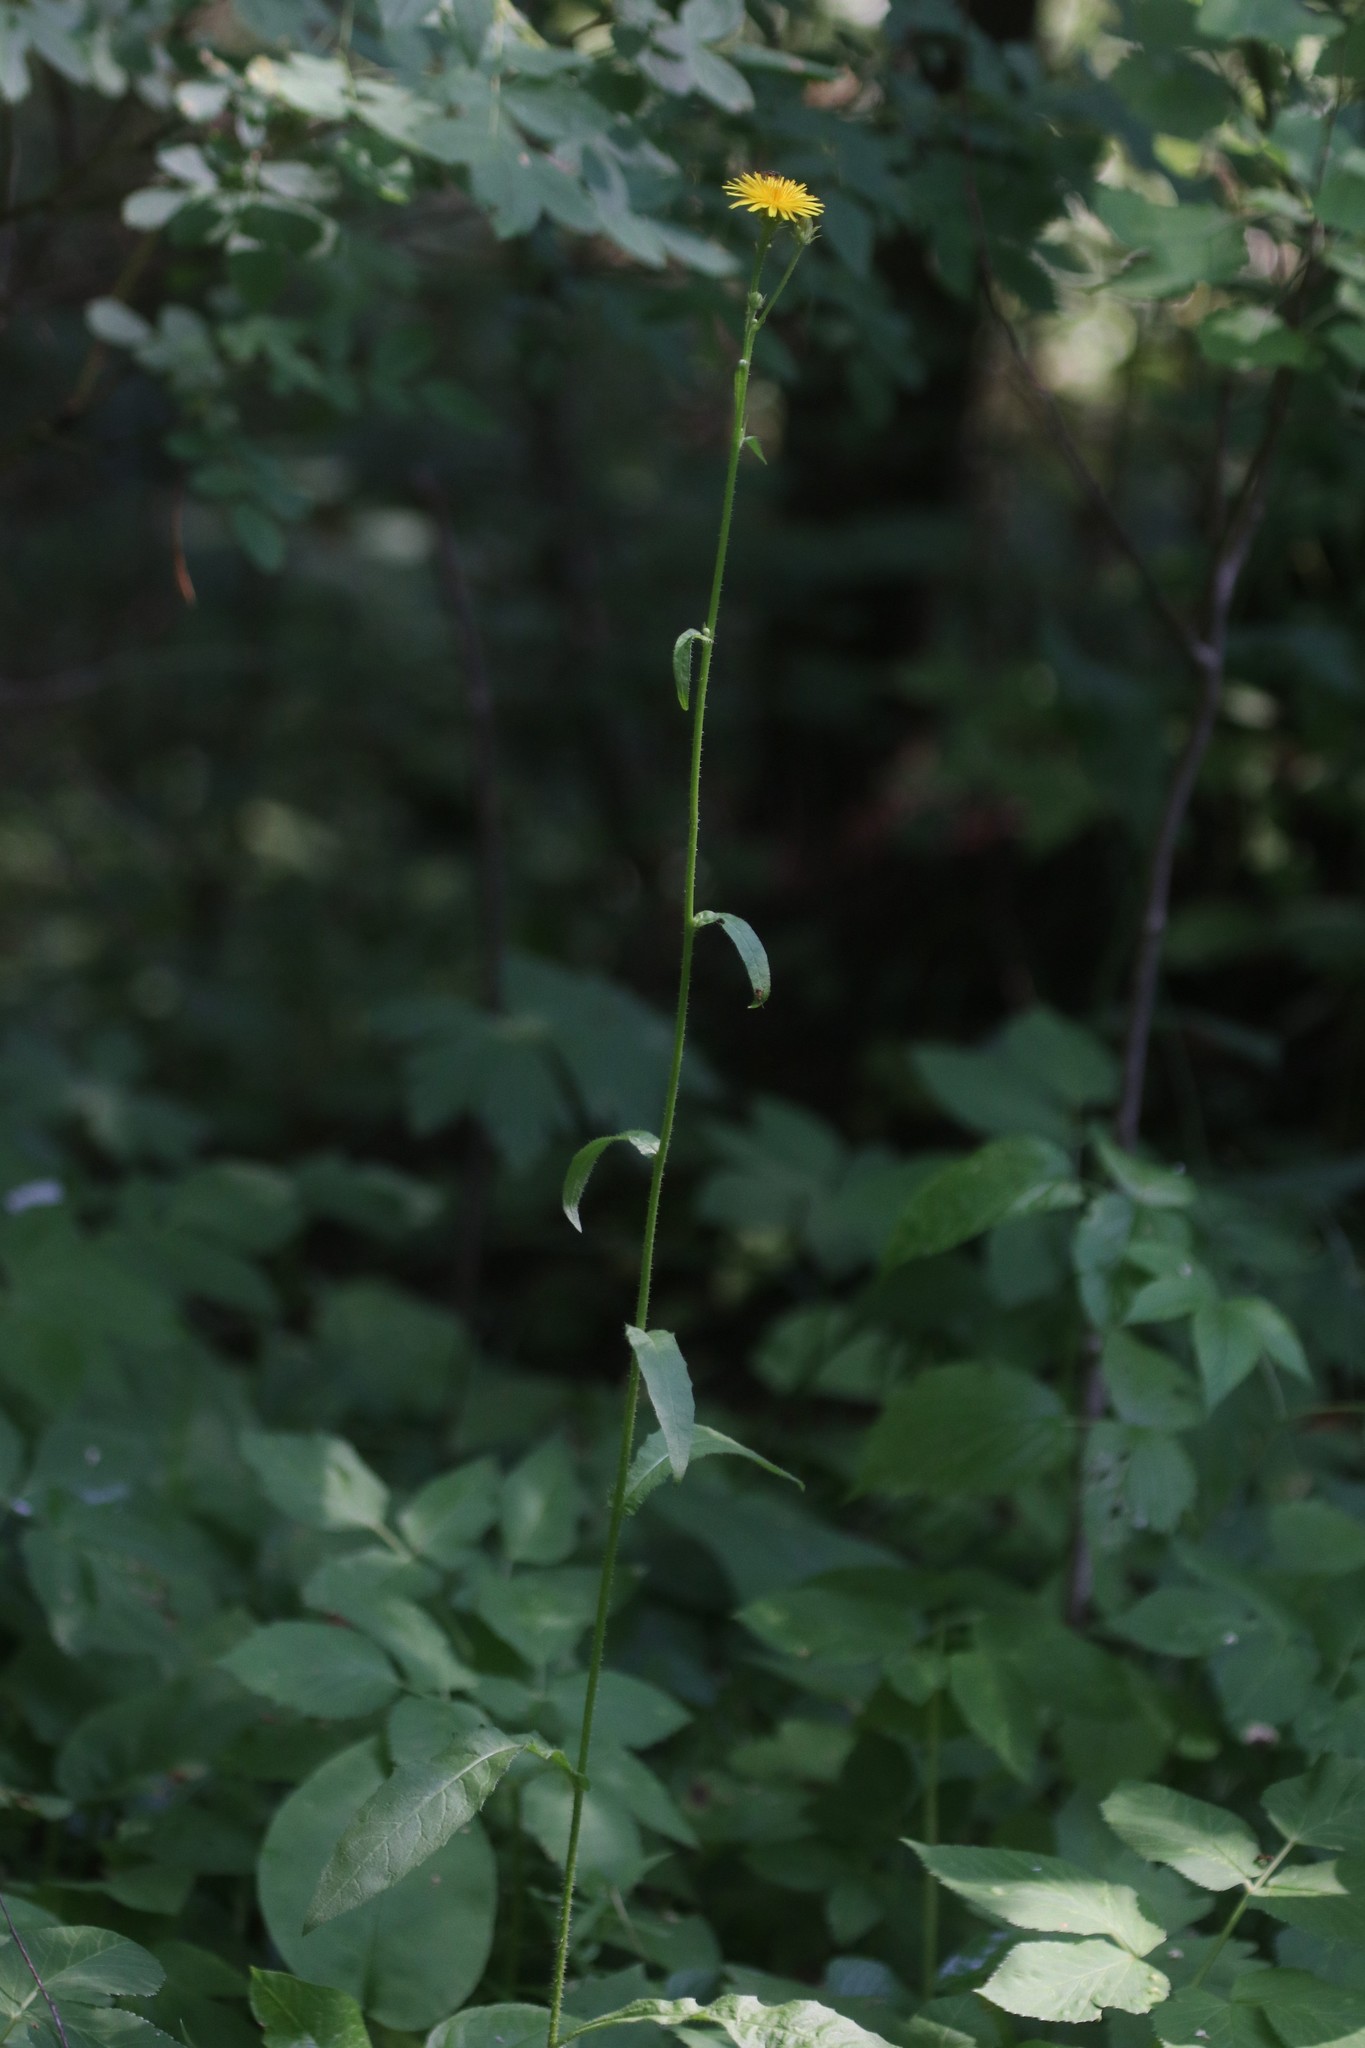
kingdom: Plantae
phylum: Tracheophyta
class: Magnoliopsida
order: Asterales
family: Asteraceae
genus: Picris
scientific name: Picris hieracioides
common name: Hawkweed oxtongue
